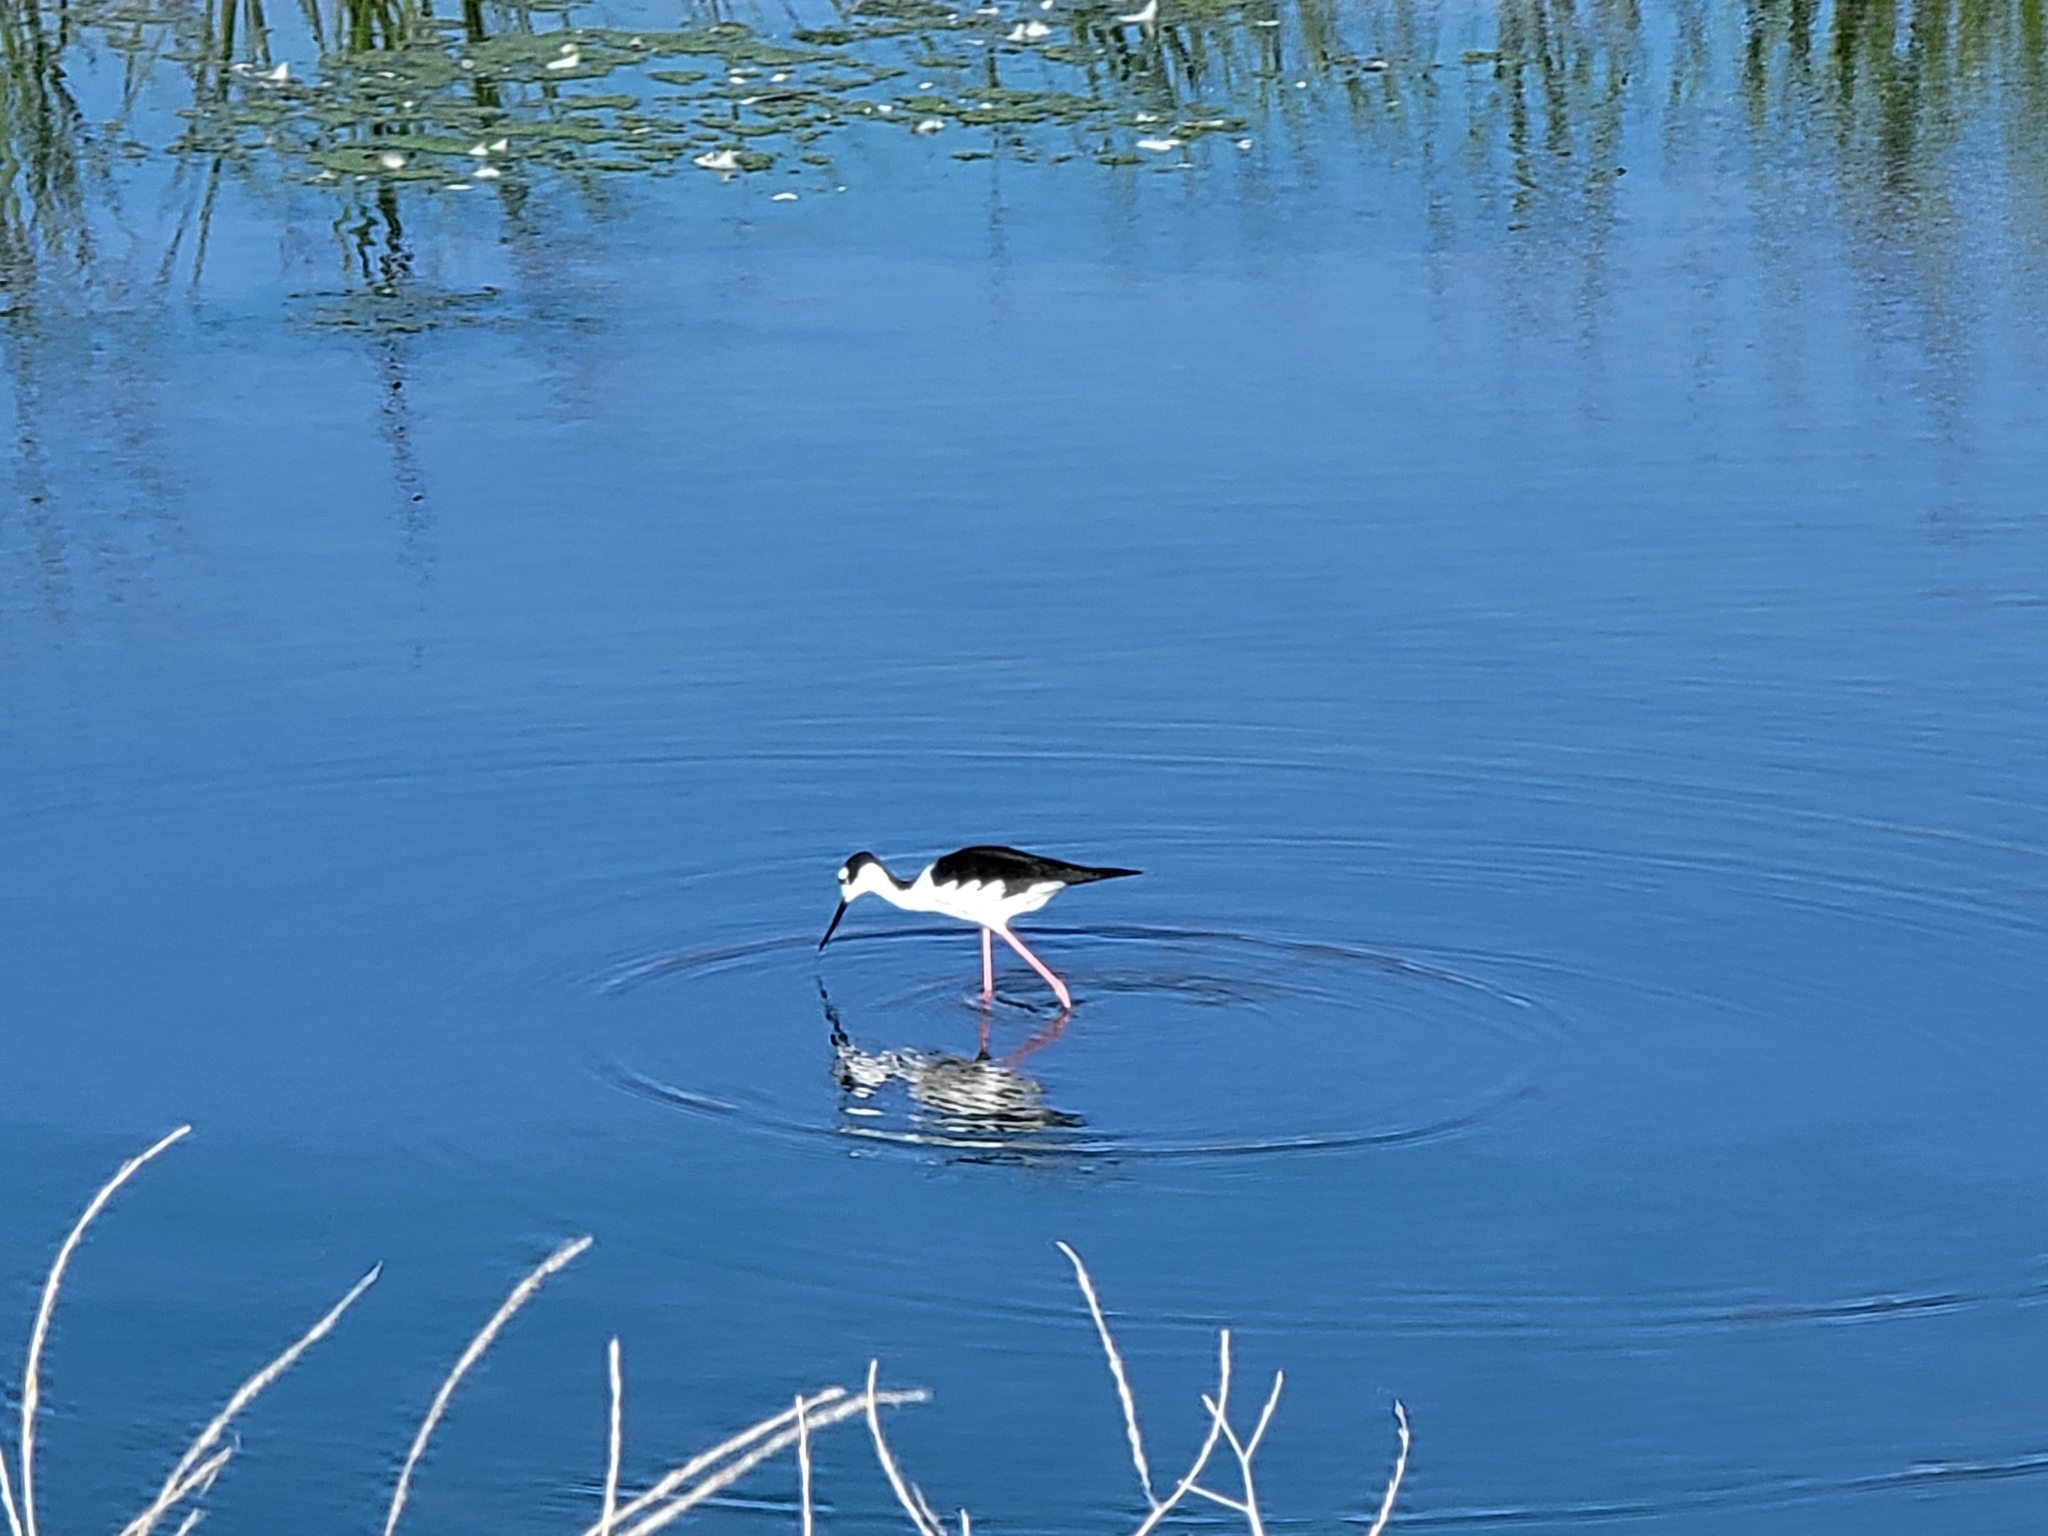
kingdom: Animalia
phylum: Chordata
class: Aves
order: Charadriiformes
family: Recurvirostridae
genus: Himantopus
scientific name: Himantopus mexicanus
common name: Black-necked stilt
